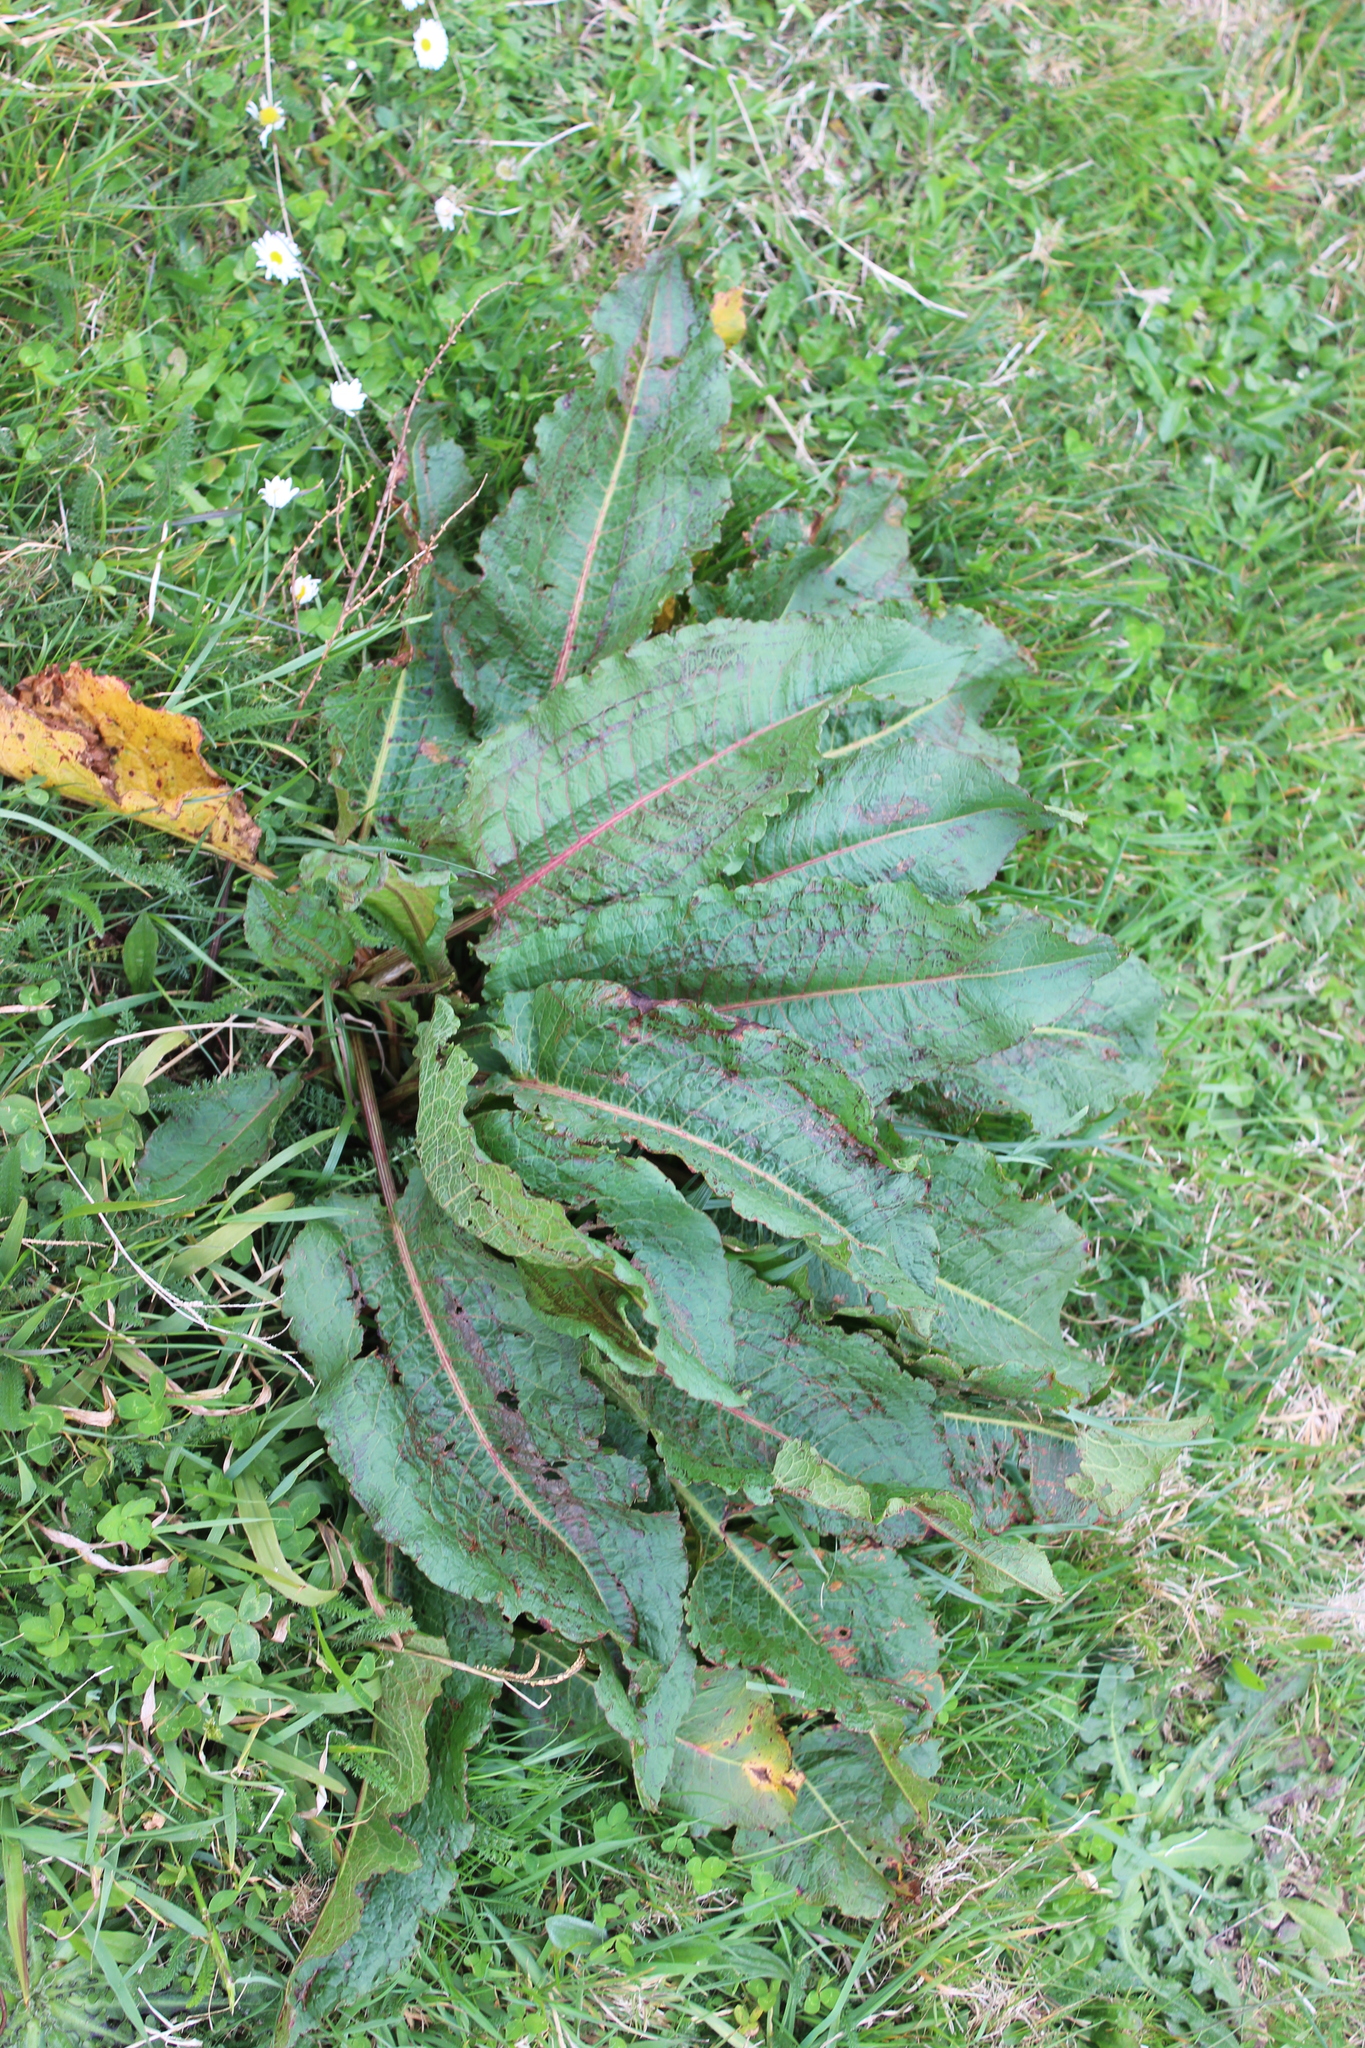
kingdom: Plantae
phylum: Tracheophyta
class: Magnoliopsida
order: Caryophyllales
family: Polygonaceae
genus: Rumex
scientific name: Rumex obtusifolius
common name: Bitter dock
